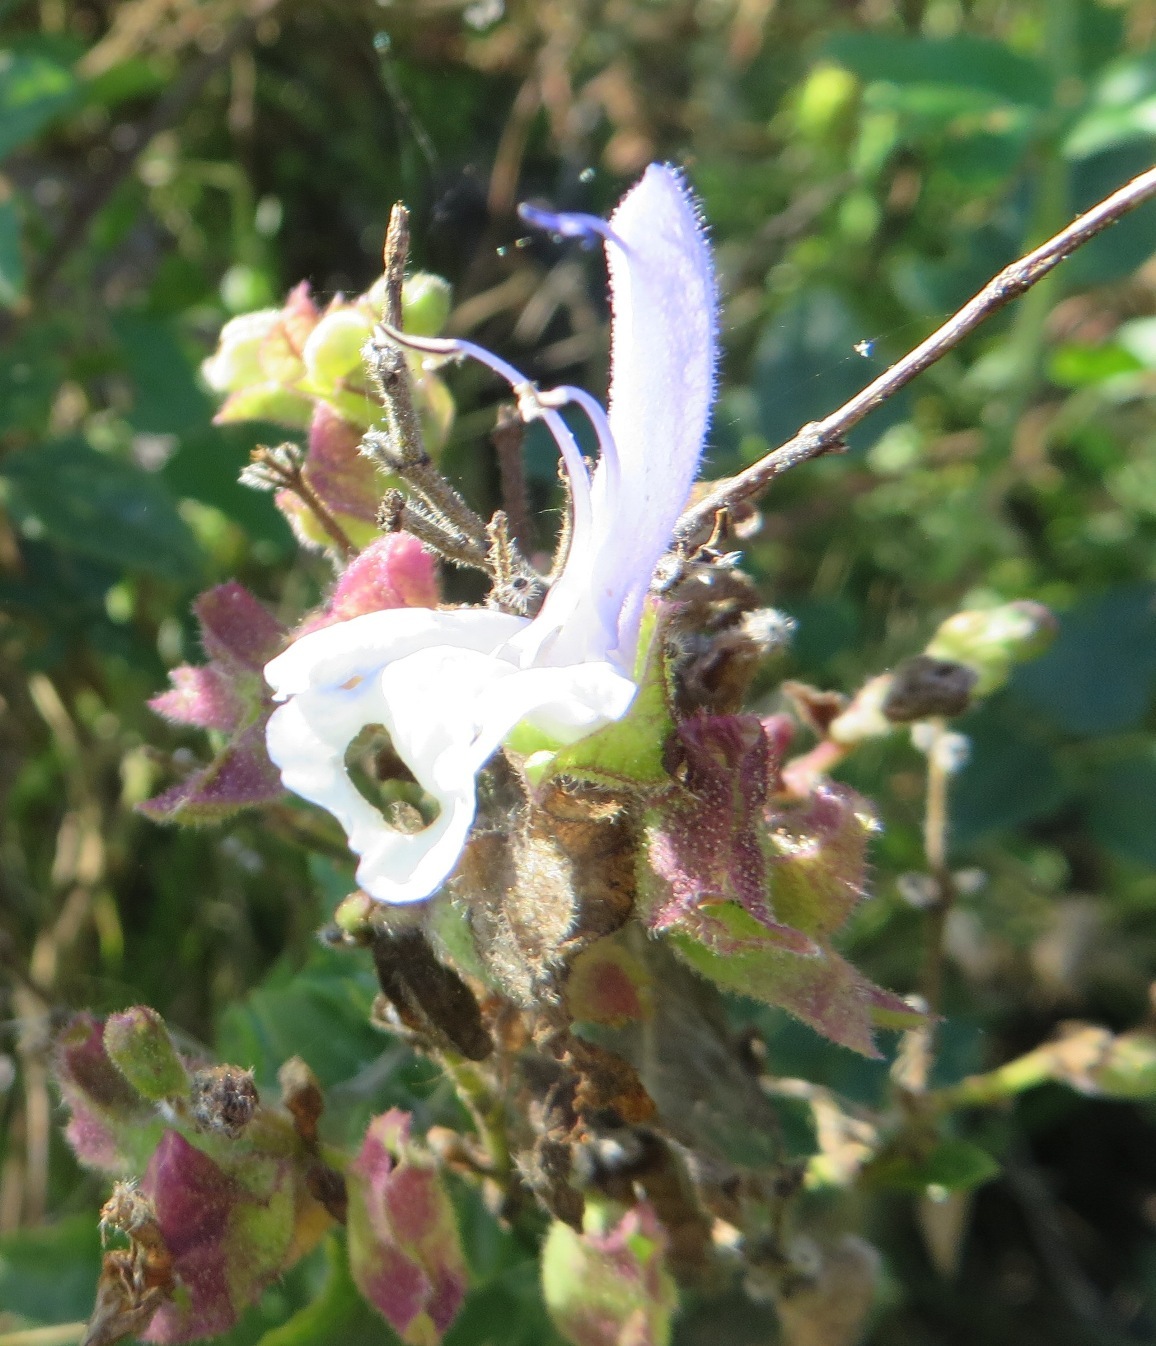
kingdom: Plantae
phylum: Tracheophyta
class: Magnoliopsida
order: Lamiales
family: Lamiaceae
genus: Salvia
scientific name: Salvia chamelaeagnea
